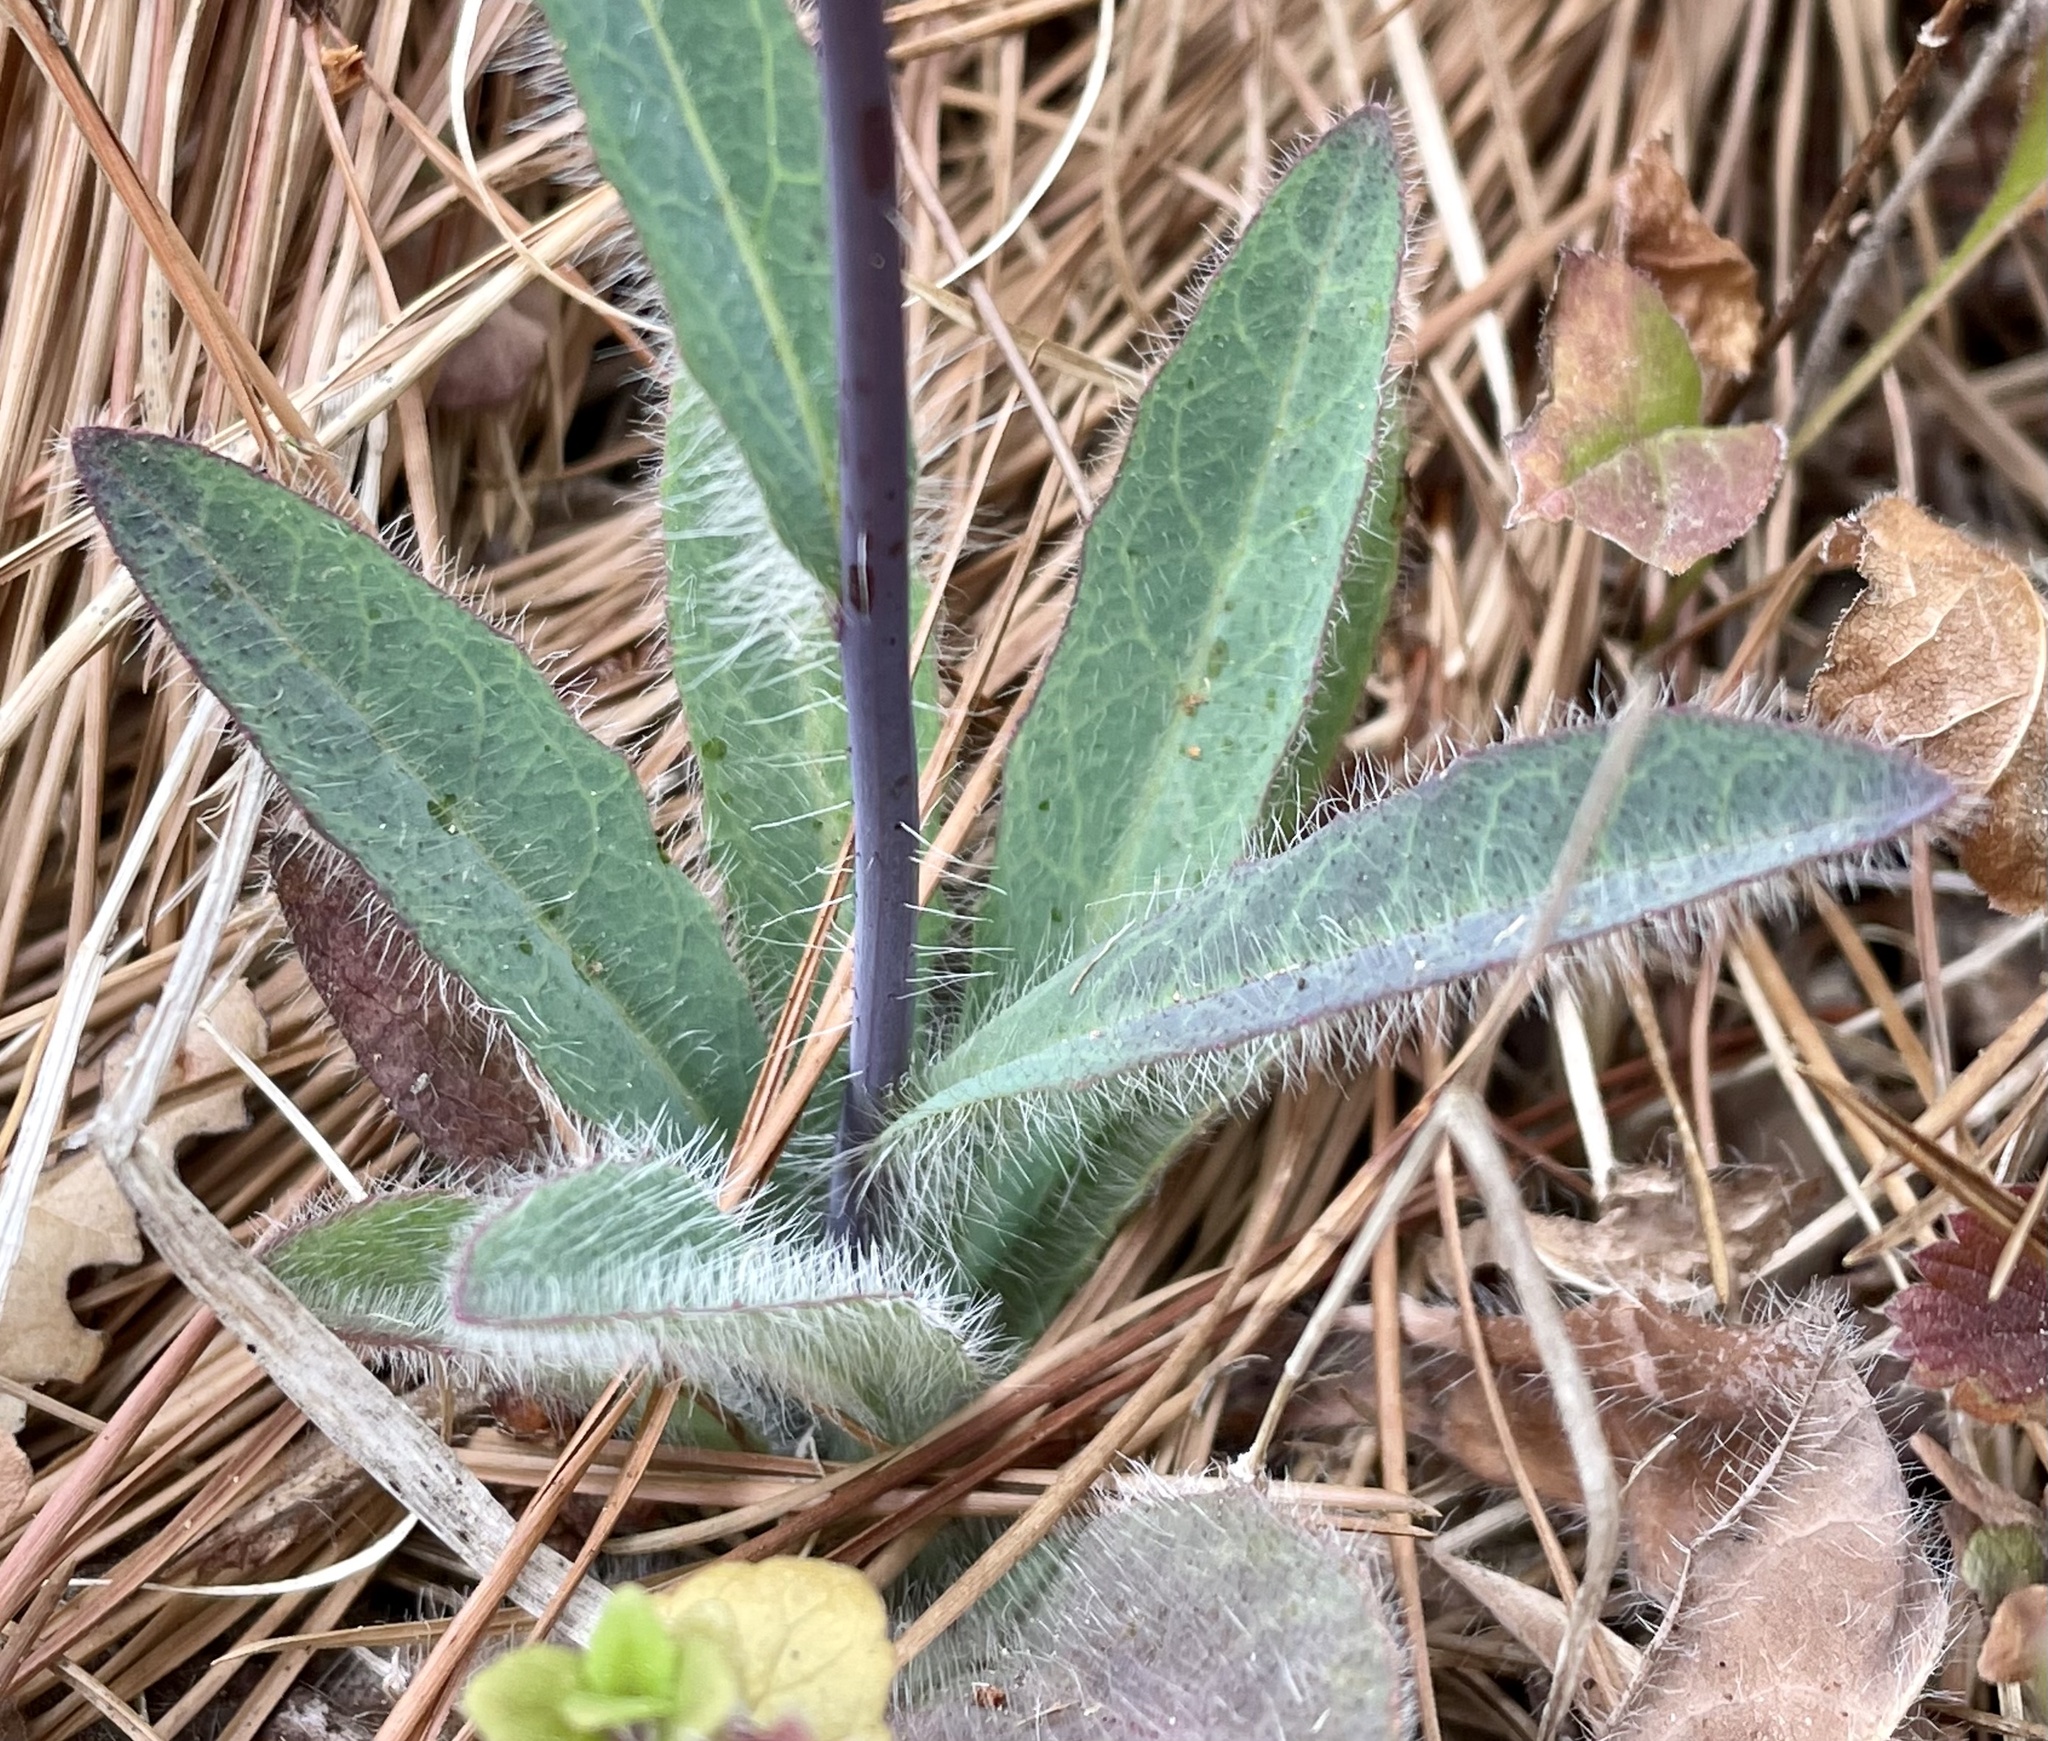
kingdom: Plantae
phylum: Tracheophyta
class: Magnoliopsida
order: Asterales
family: Asteraceae
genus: Hieracium
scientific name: Hieracium albiflorum
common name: White hawkweed
